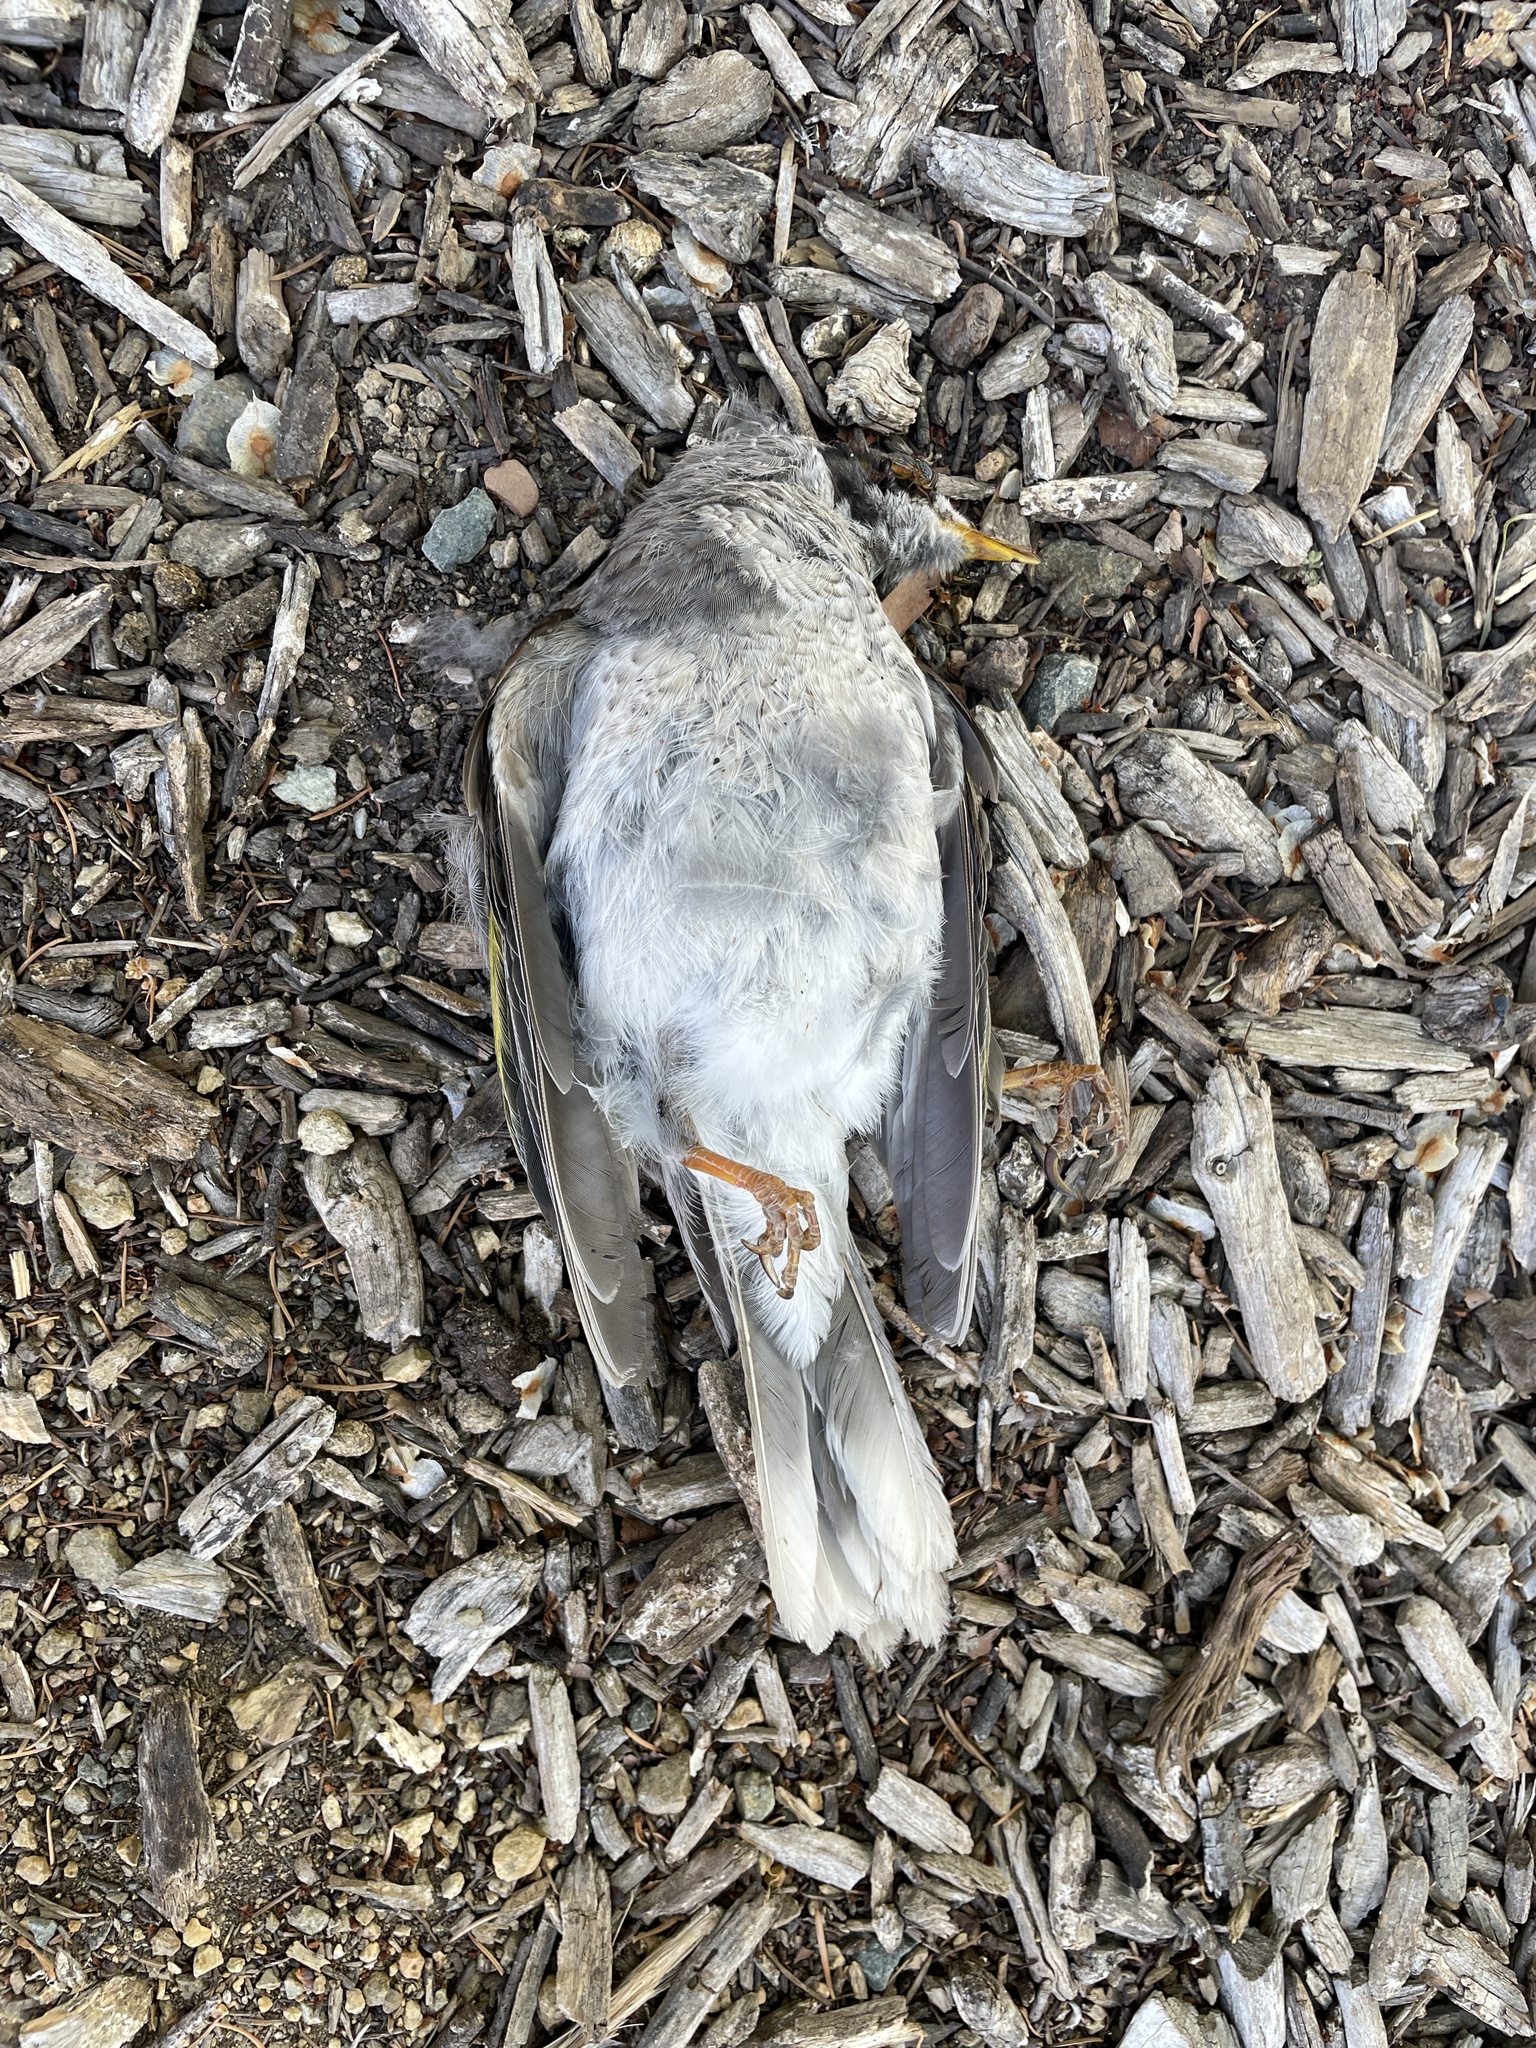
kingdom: Animalia
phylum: Chordata
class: Aves
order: Passeriformes
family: Meliphagidae
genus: Manorina
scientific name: Manorina melanocephala
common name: Noisy miner
